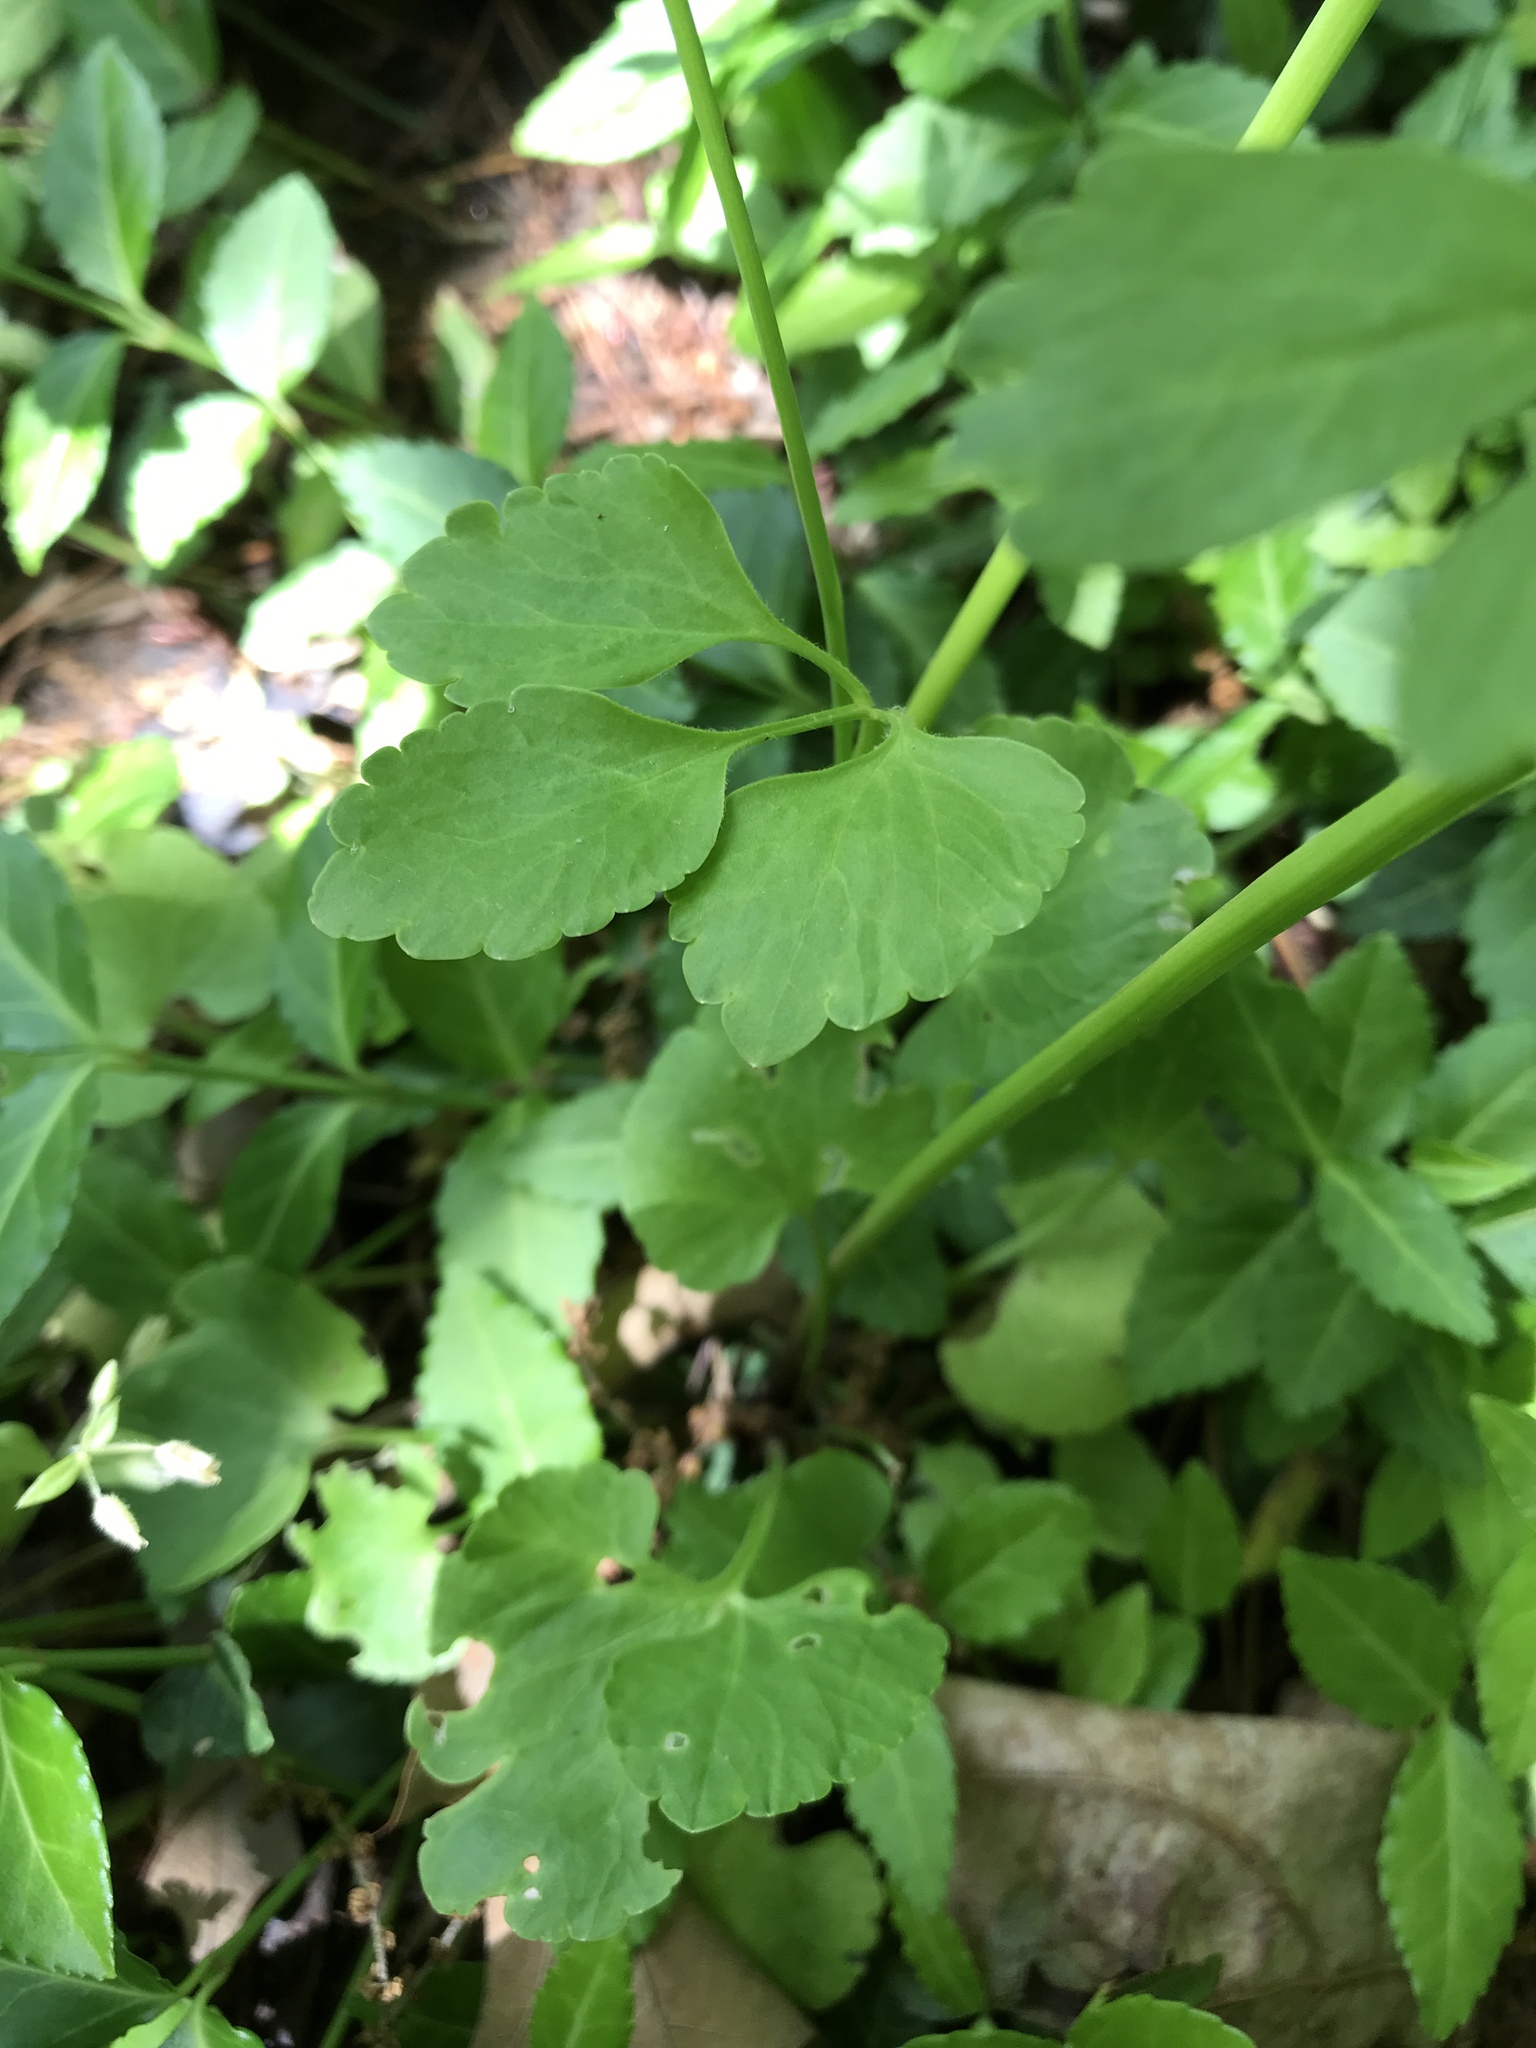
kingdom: Plantae
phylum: Tracheophyta
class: Magnoliopsida
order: Ranunculales
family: Ranunculaceae
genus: Ranunculus
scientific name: Ranunculus abortivus
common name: Early wood buttercup
